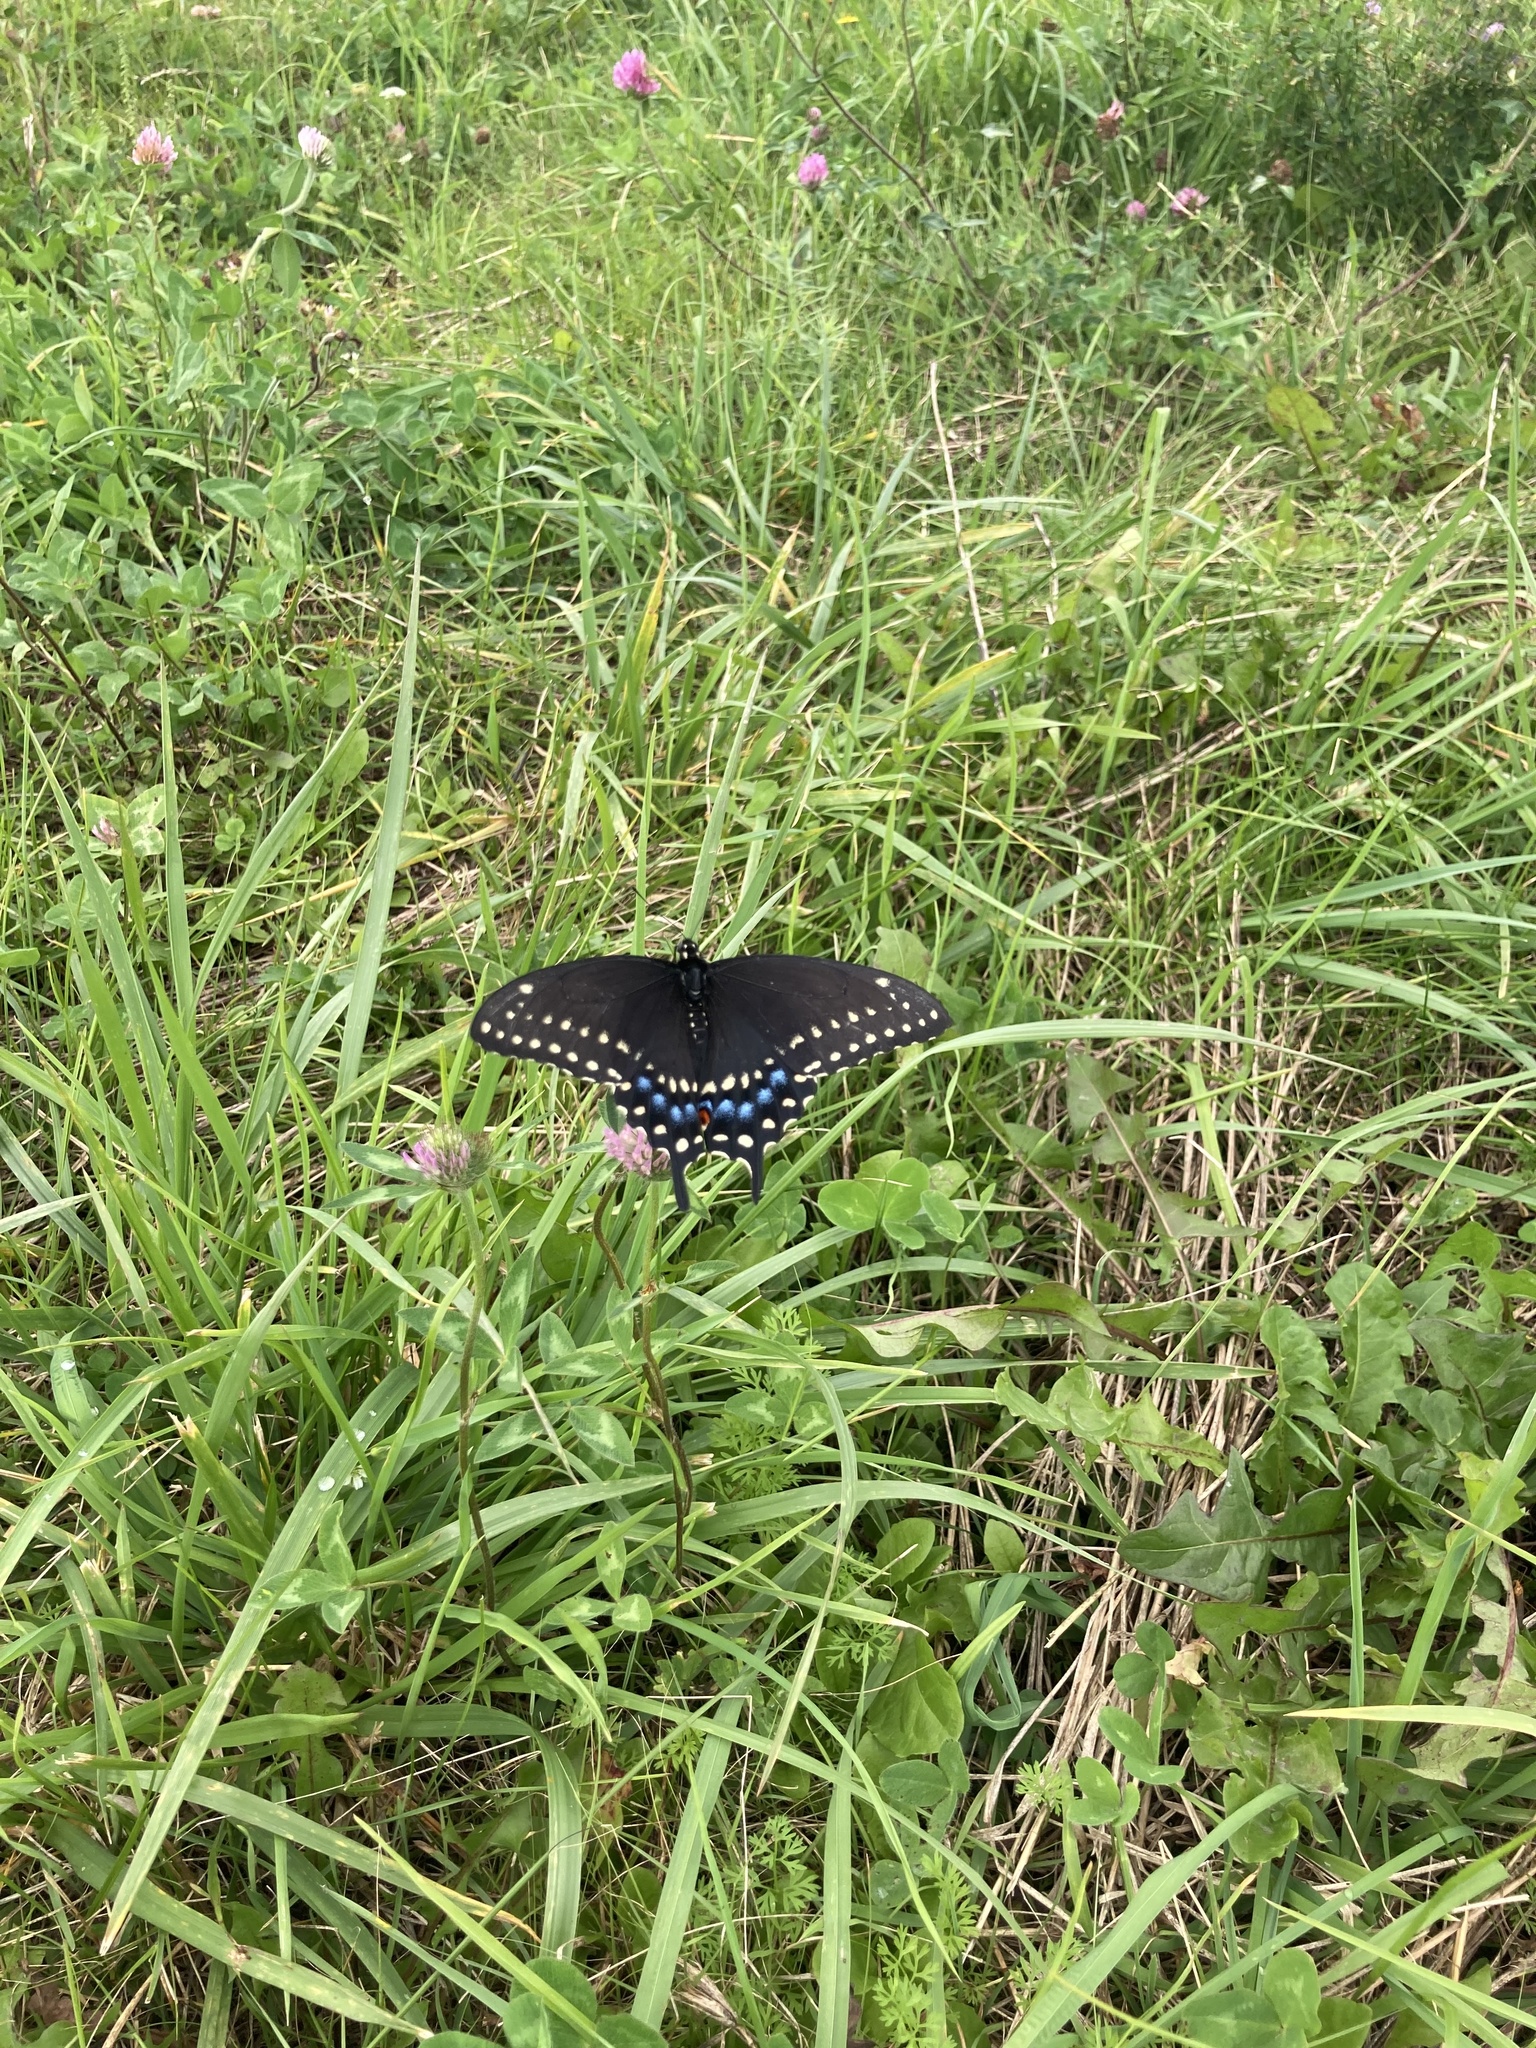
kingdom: Animalia
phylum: Arthropoda
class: Insecta
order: Lepidoptera
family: Papilionidae
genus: Papilio
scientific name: Papilio polyxenes
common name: Black swallowtail
